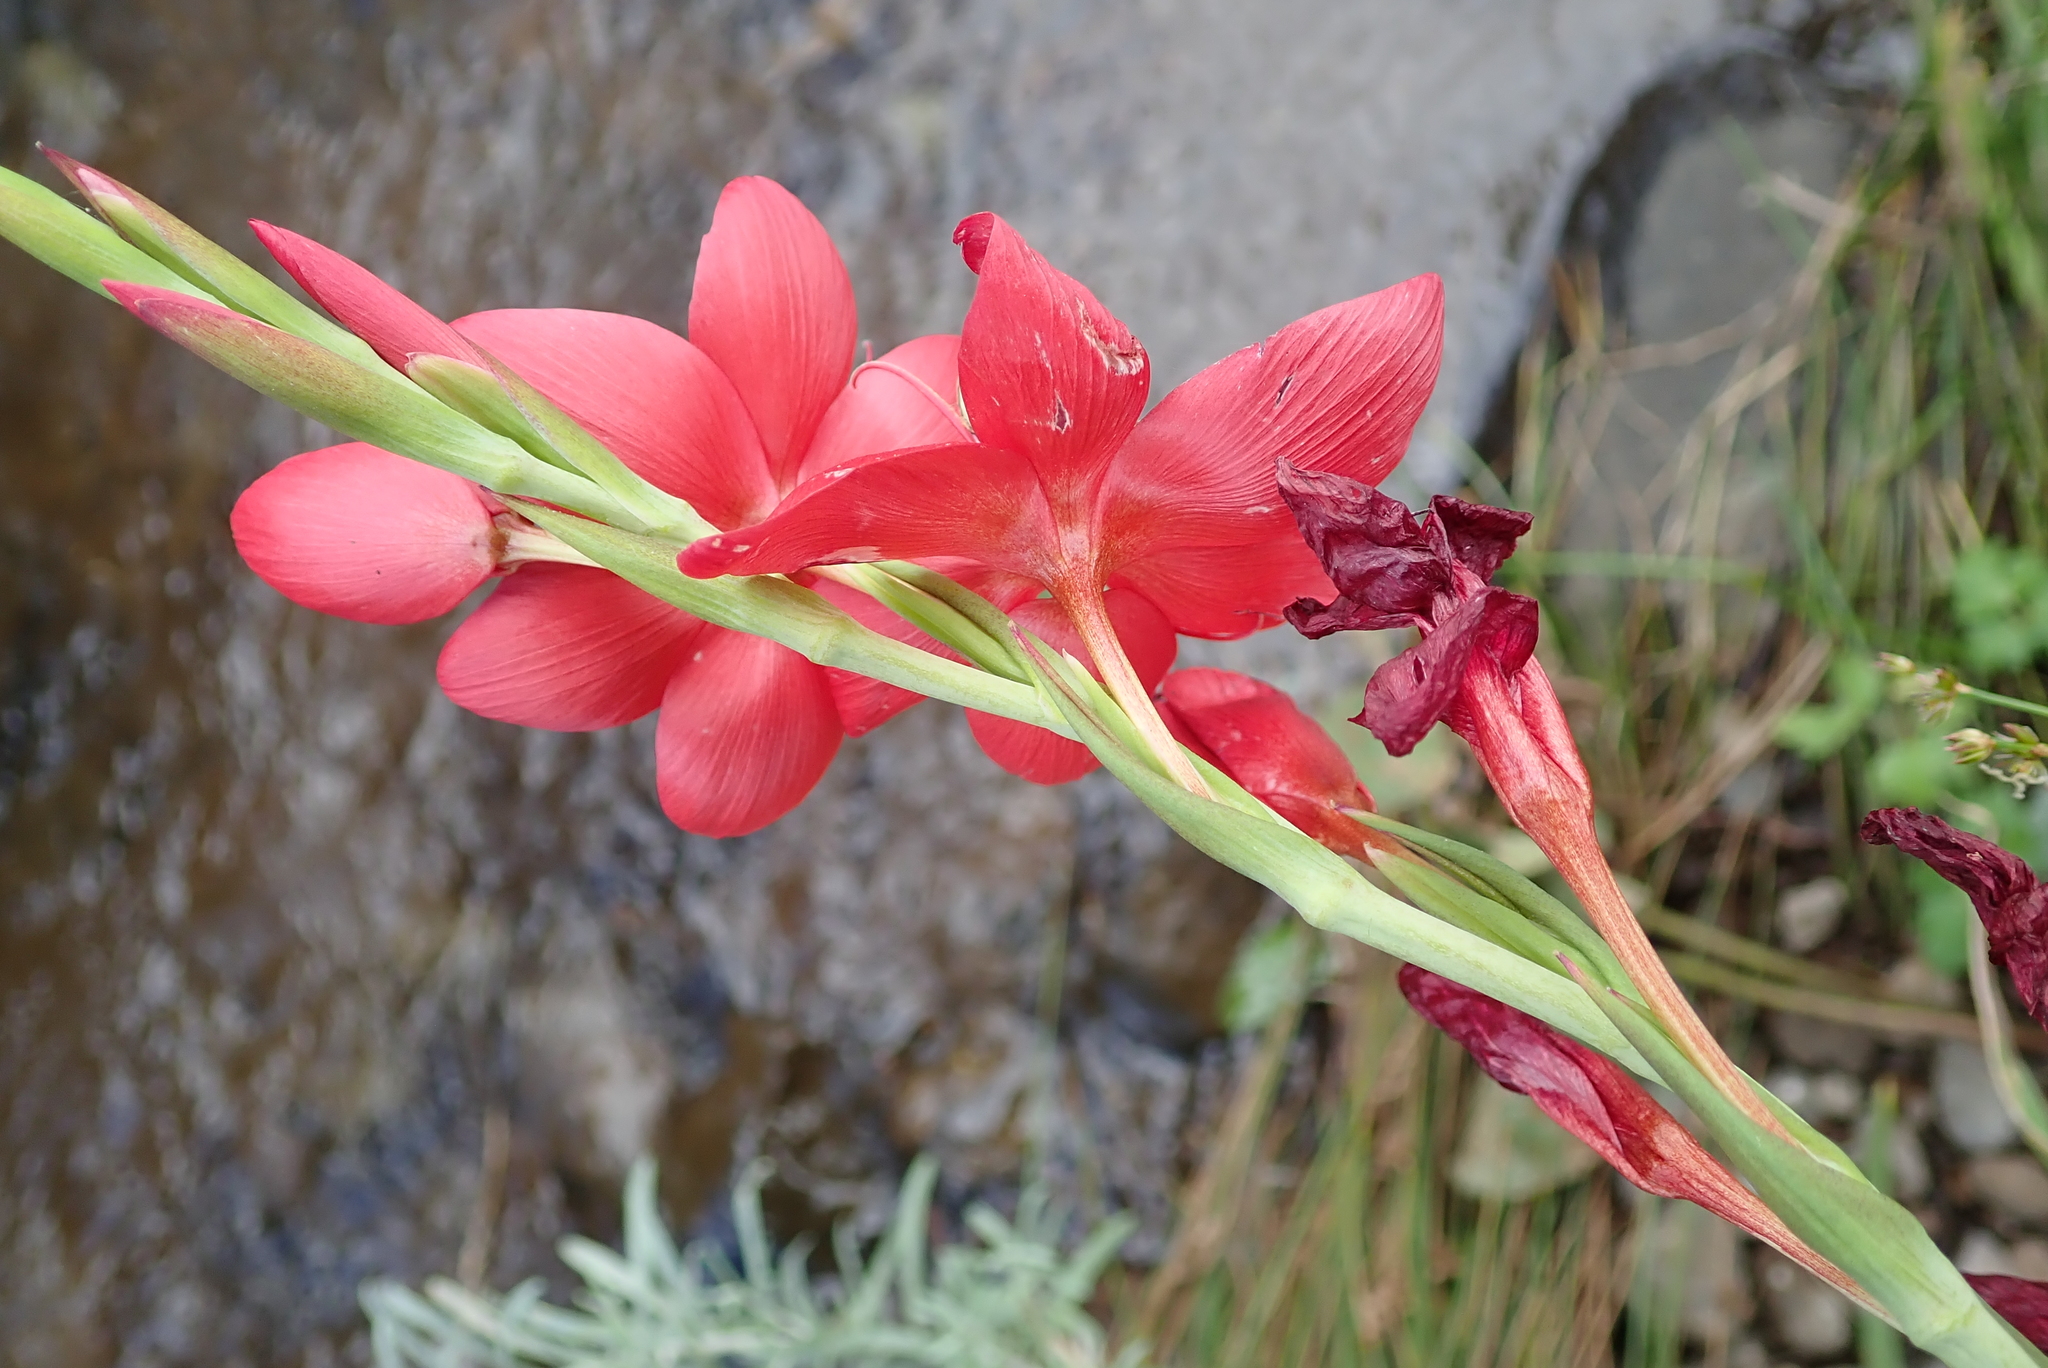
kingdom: Plantae
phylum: Tracheophyta
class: Liliopsida
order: Asparagales
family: Iridaceae
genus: Hesperantha
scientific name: Hesperantha coccinea
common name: River-lily
